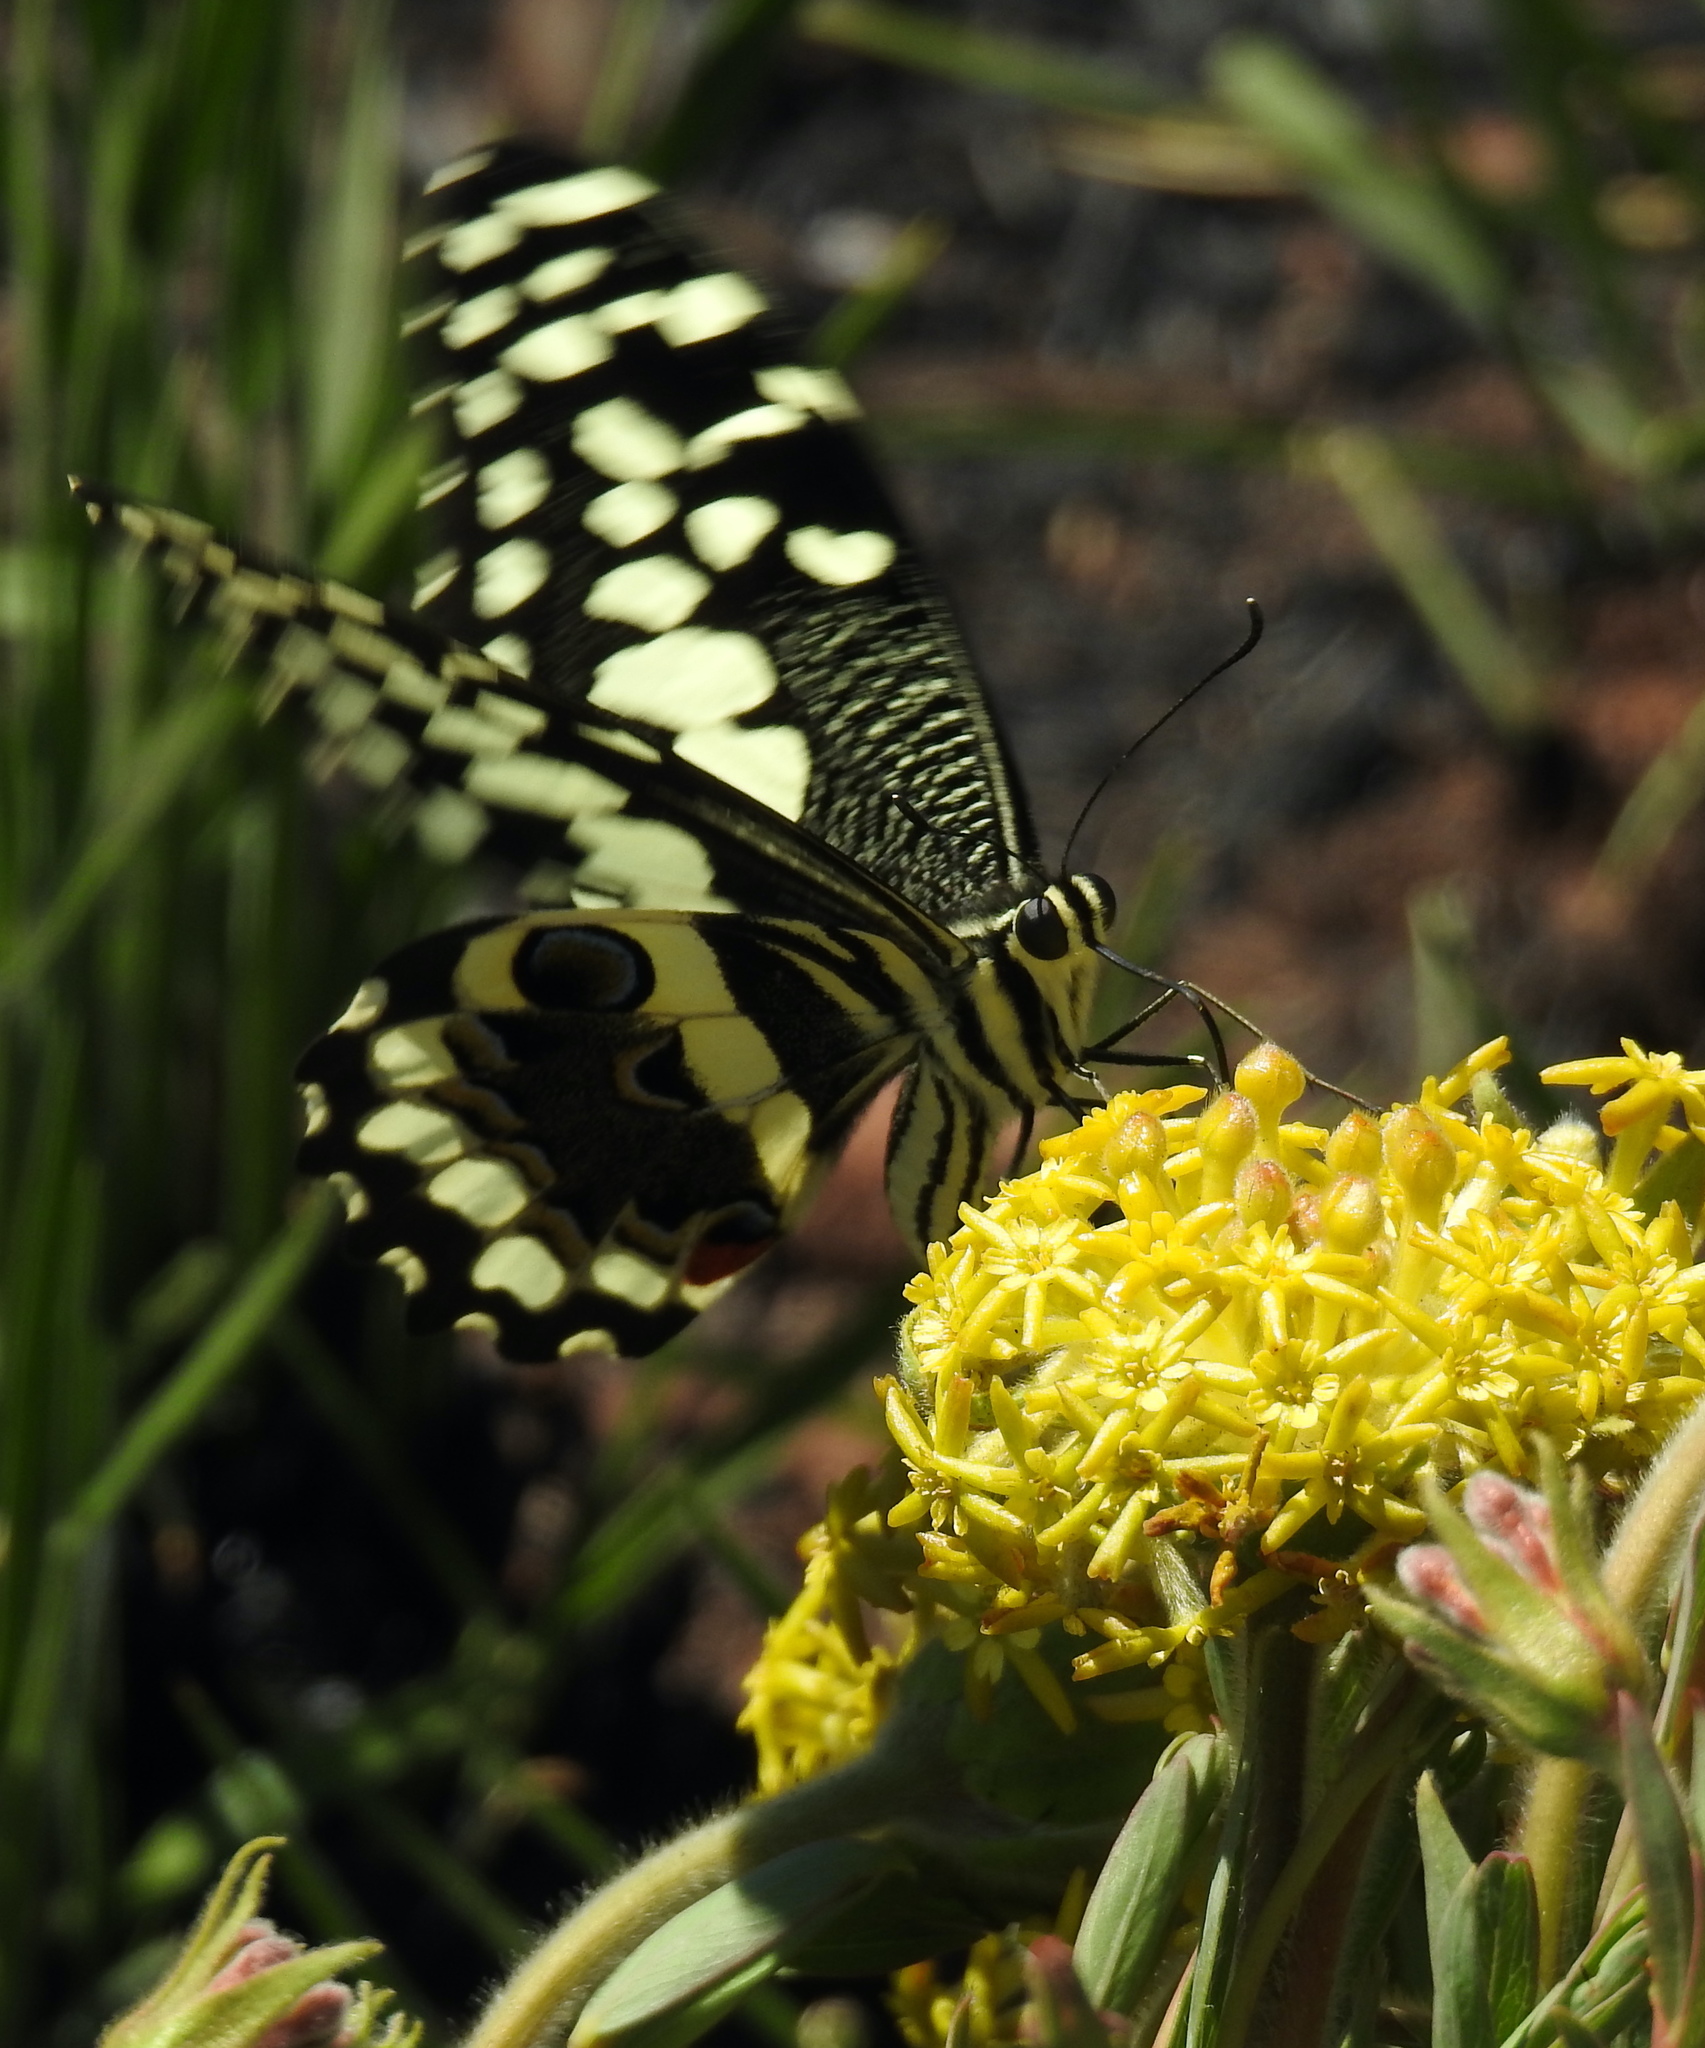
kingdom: Animalia
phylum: Arthropoda
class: Insecta
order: Lepidoptera
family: Papilionidae
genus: Papilio
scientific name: Papilio demodocus
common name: Christmas butterfly
